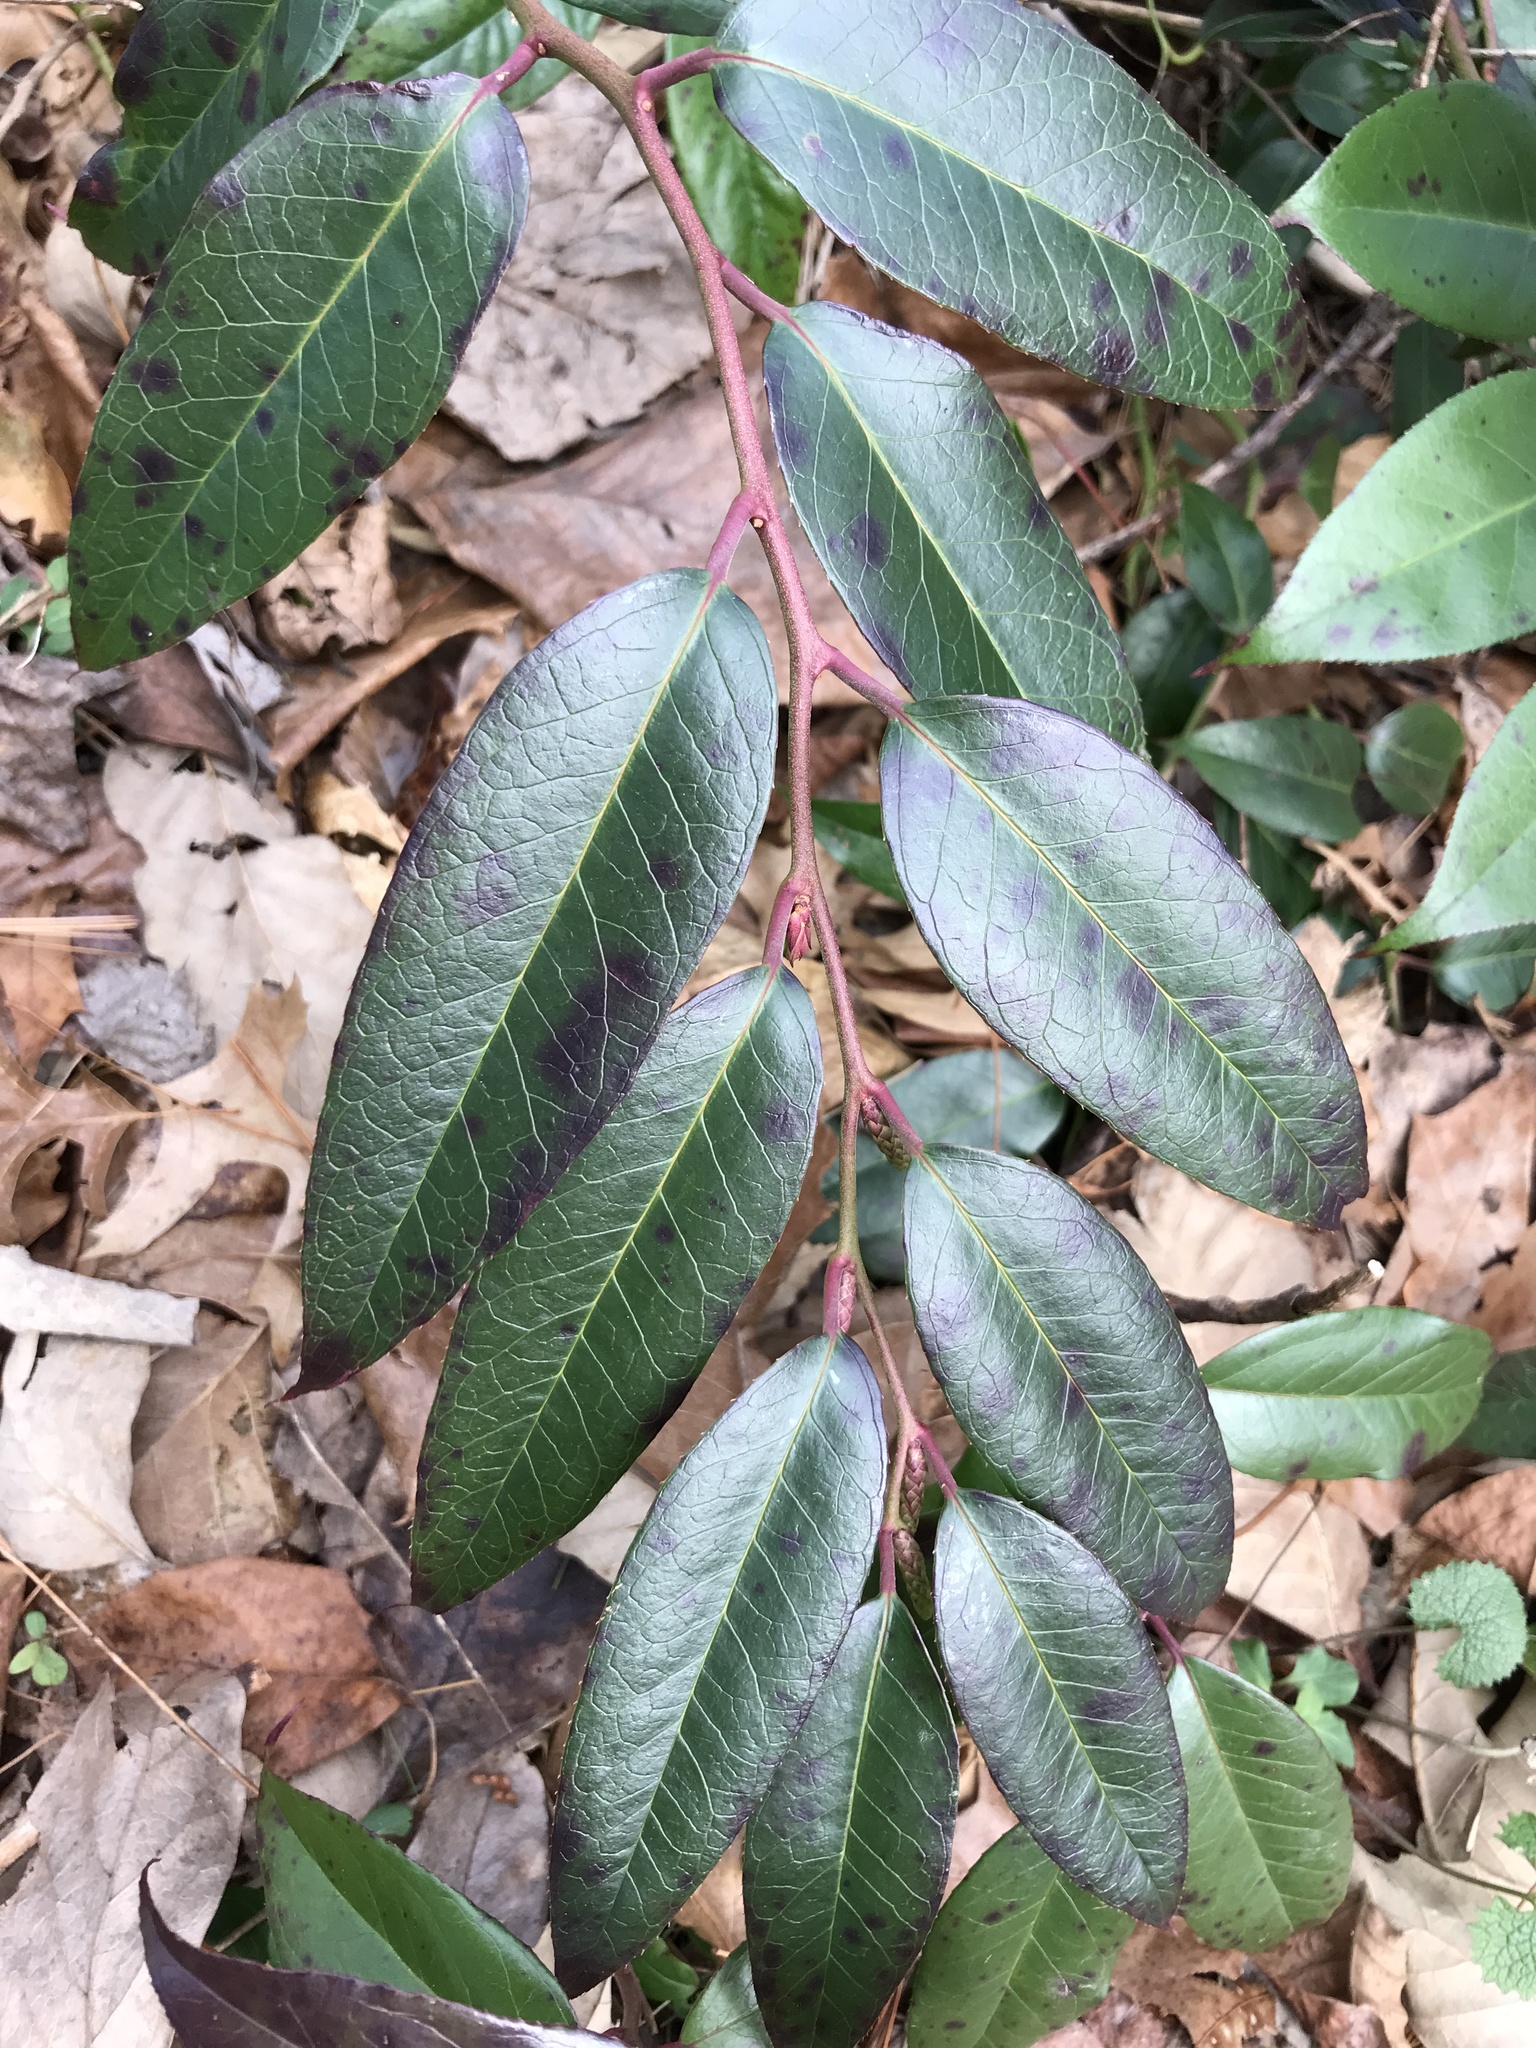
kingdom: Plantae
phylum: Tracheophyta
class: Magnoliopsida
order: Ericales
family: Ericaceae
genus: Leucothoe
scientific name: Leucothoe fontanesiana
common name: Fetterbush
